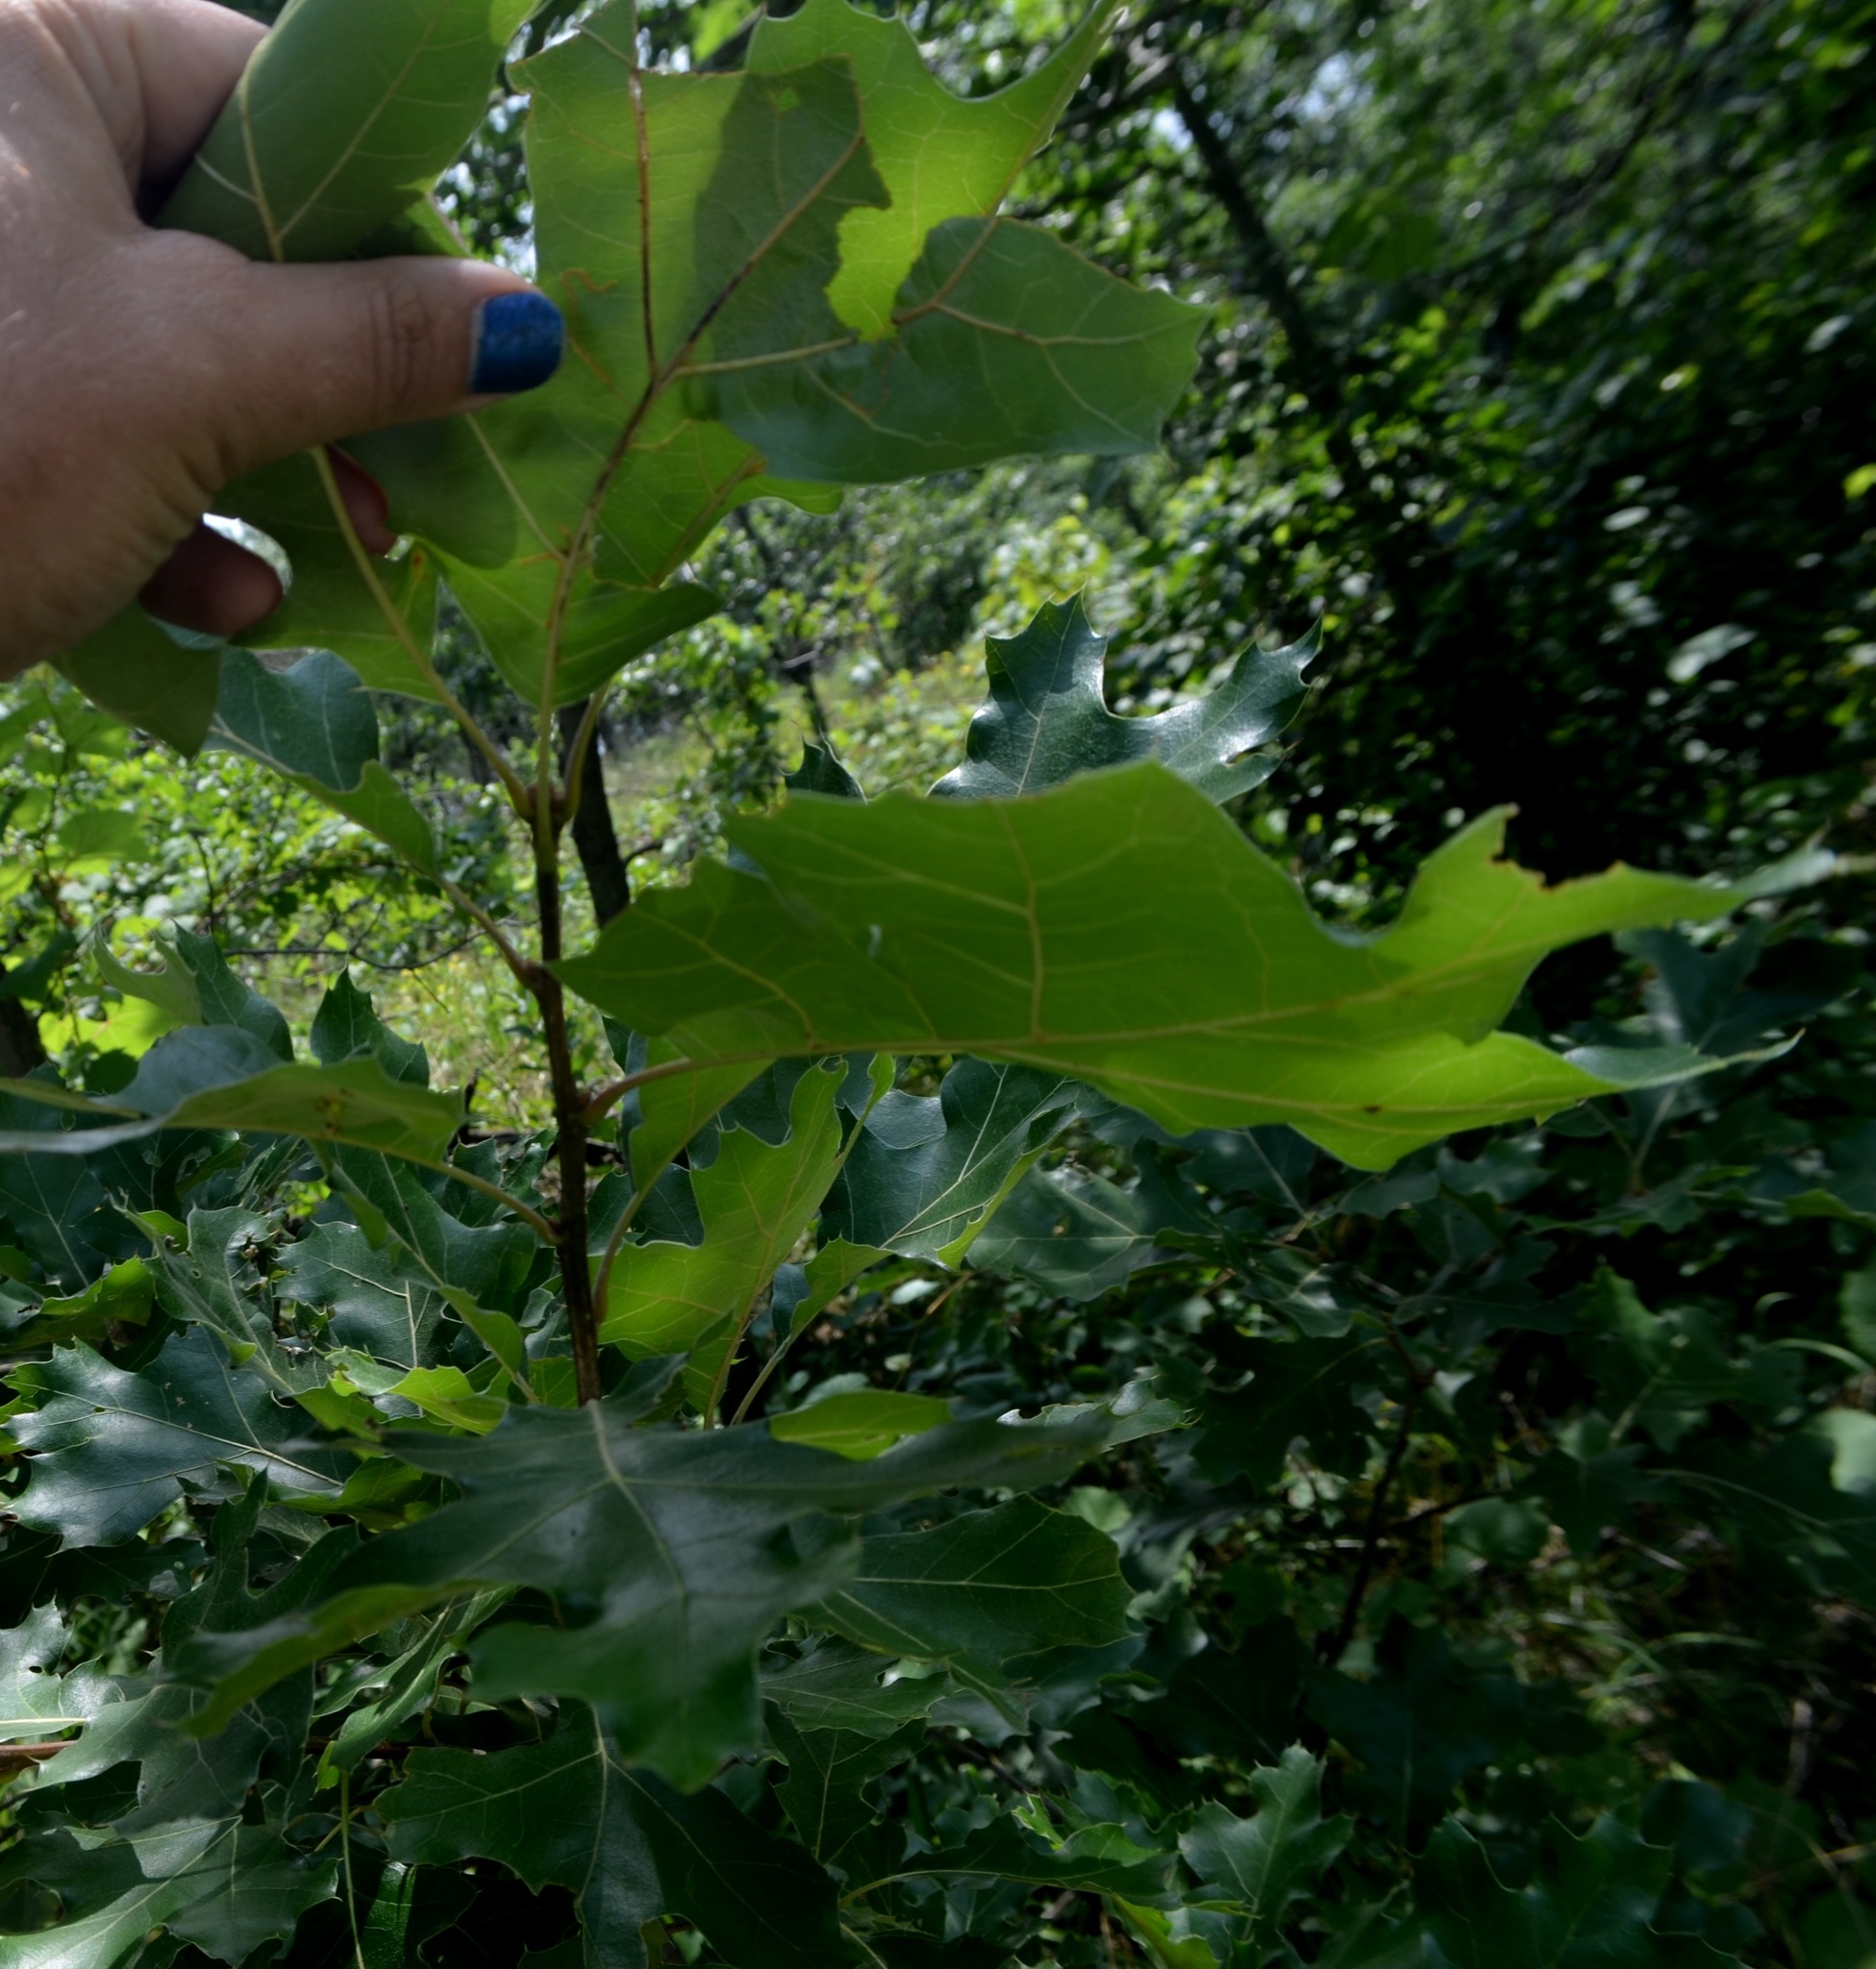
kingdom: Plantae
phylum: Tracheophyta
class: Magnoliopsida
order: Fagales
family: Fagaceae
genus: Quercus
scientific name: Quercus velutina
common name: Black oak
